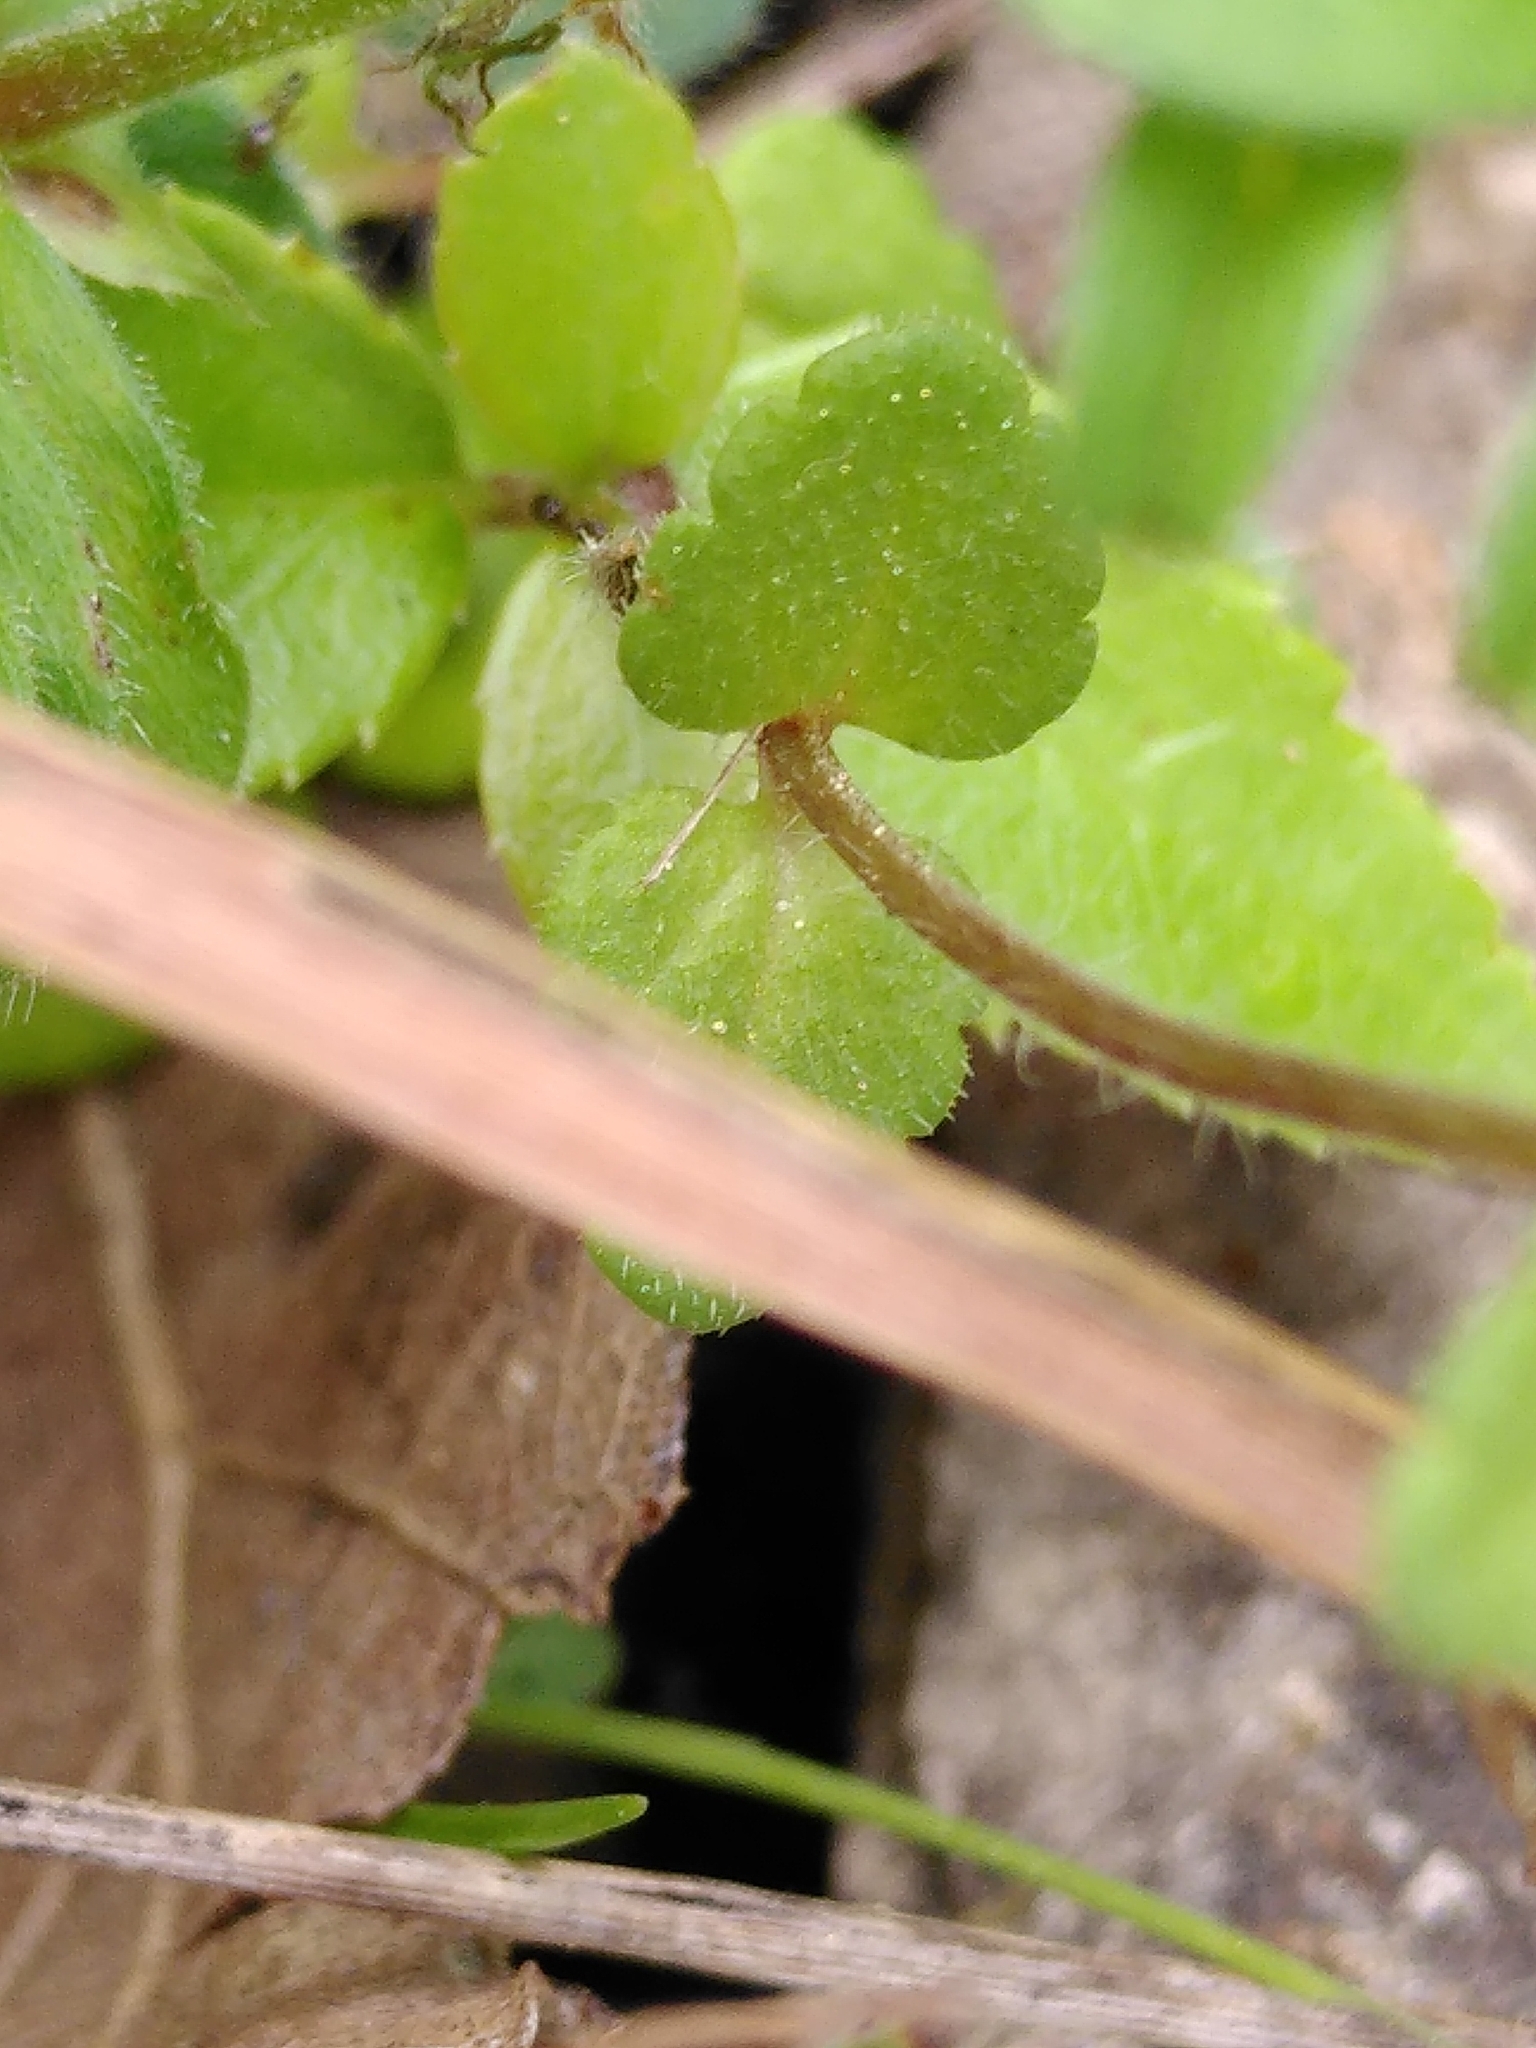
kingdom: Plantae
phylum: Tracheophyta
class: Magnoliopsida
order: Lamiales
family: Plantaginaceae
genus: Veronica
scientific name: Veronica arvensis
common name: Corn speedwell
